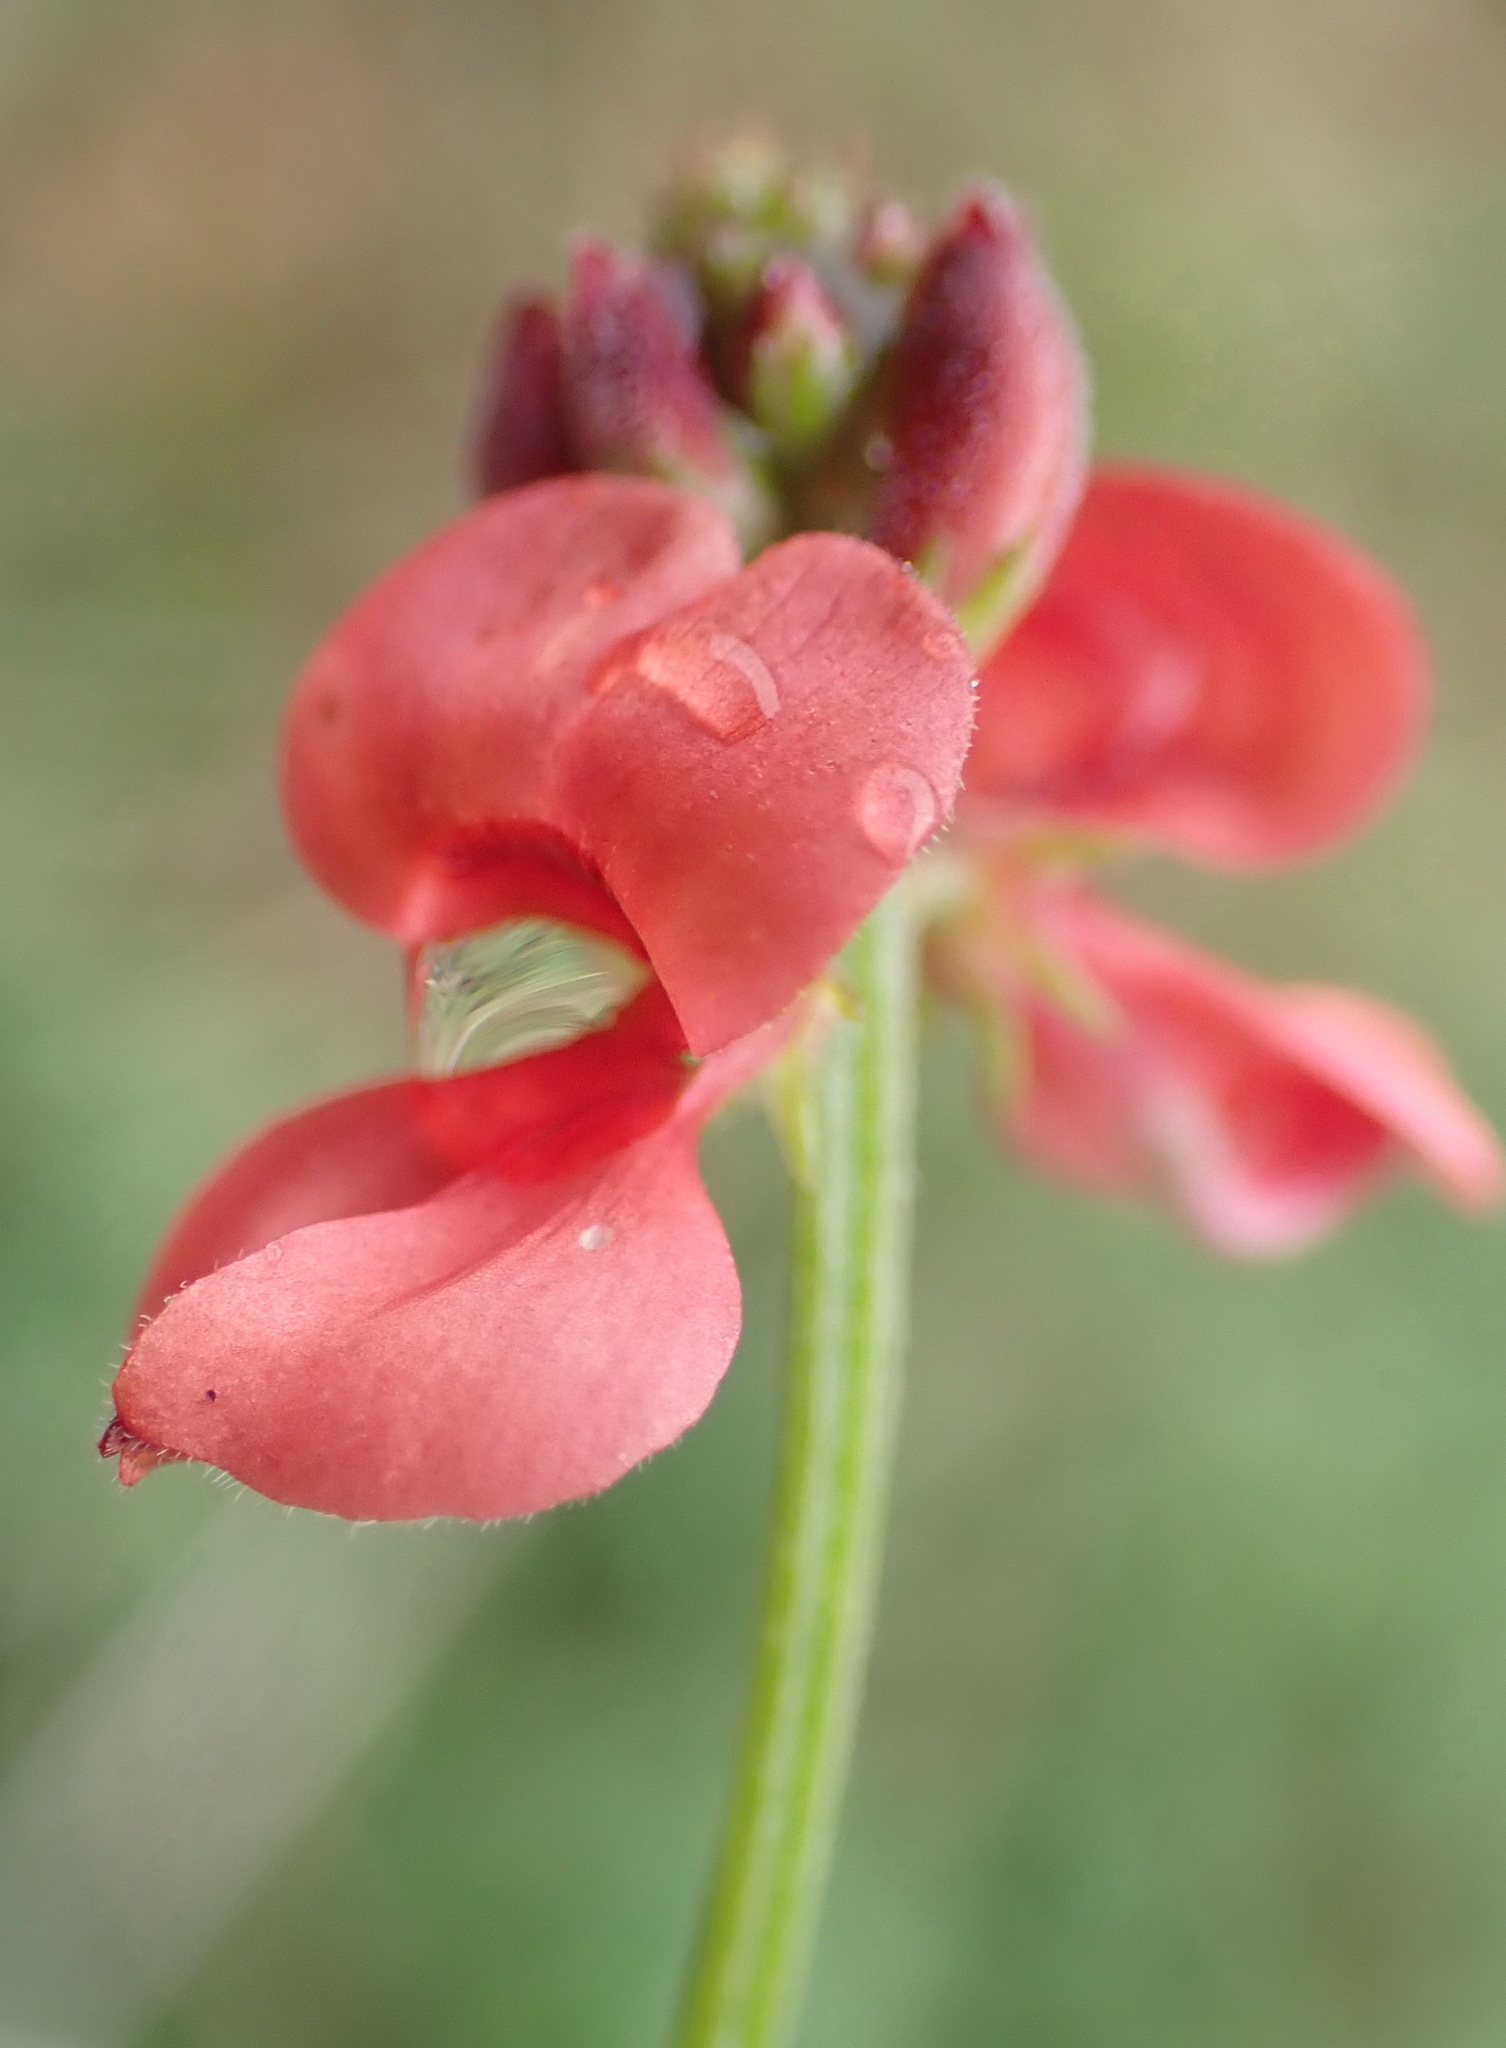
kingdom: Plantae
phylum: Tracheophyta
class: Magnoliopsida
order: Fabales
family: Fabaceae
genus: Indigofera
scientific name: Indigofera erecta
